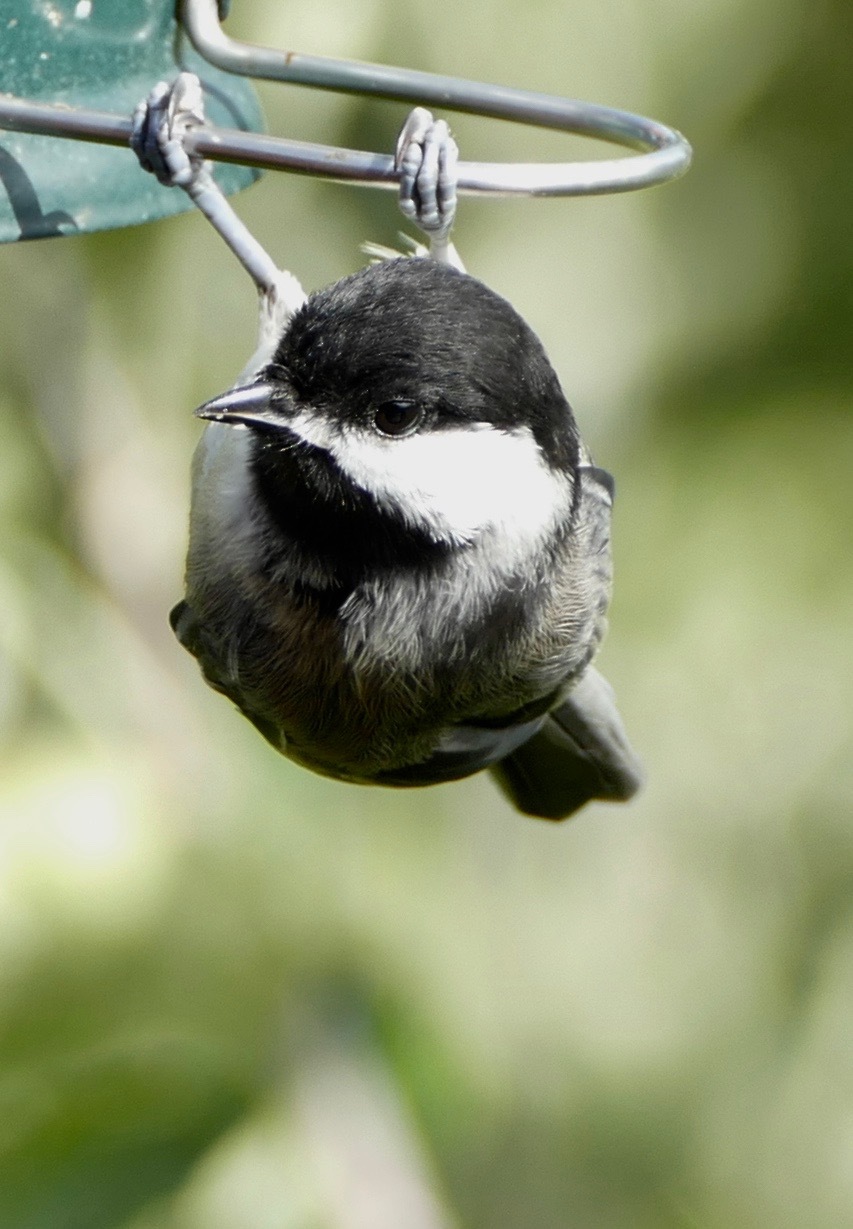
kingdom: Animalia
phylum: Chordata
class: Aves
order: Passeriformes
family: Paridae
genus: Poecile
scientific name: Poecile atricapillus
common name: Black-capped chickadee
